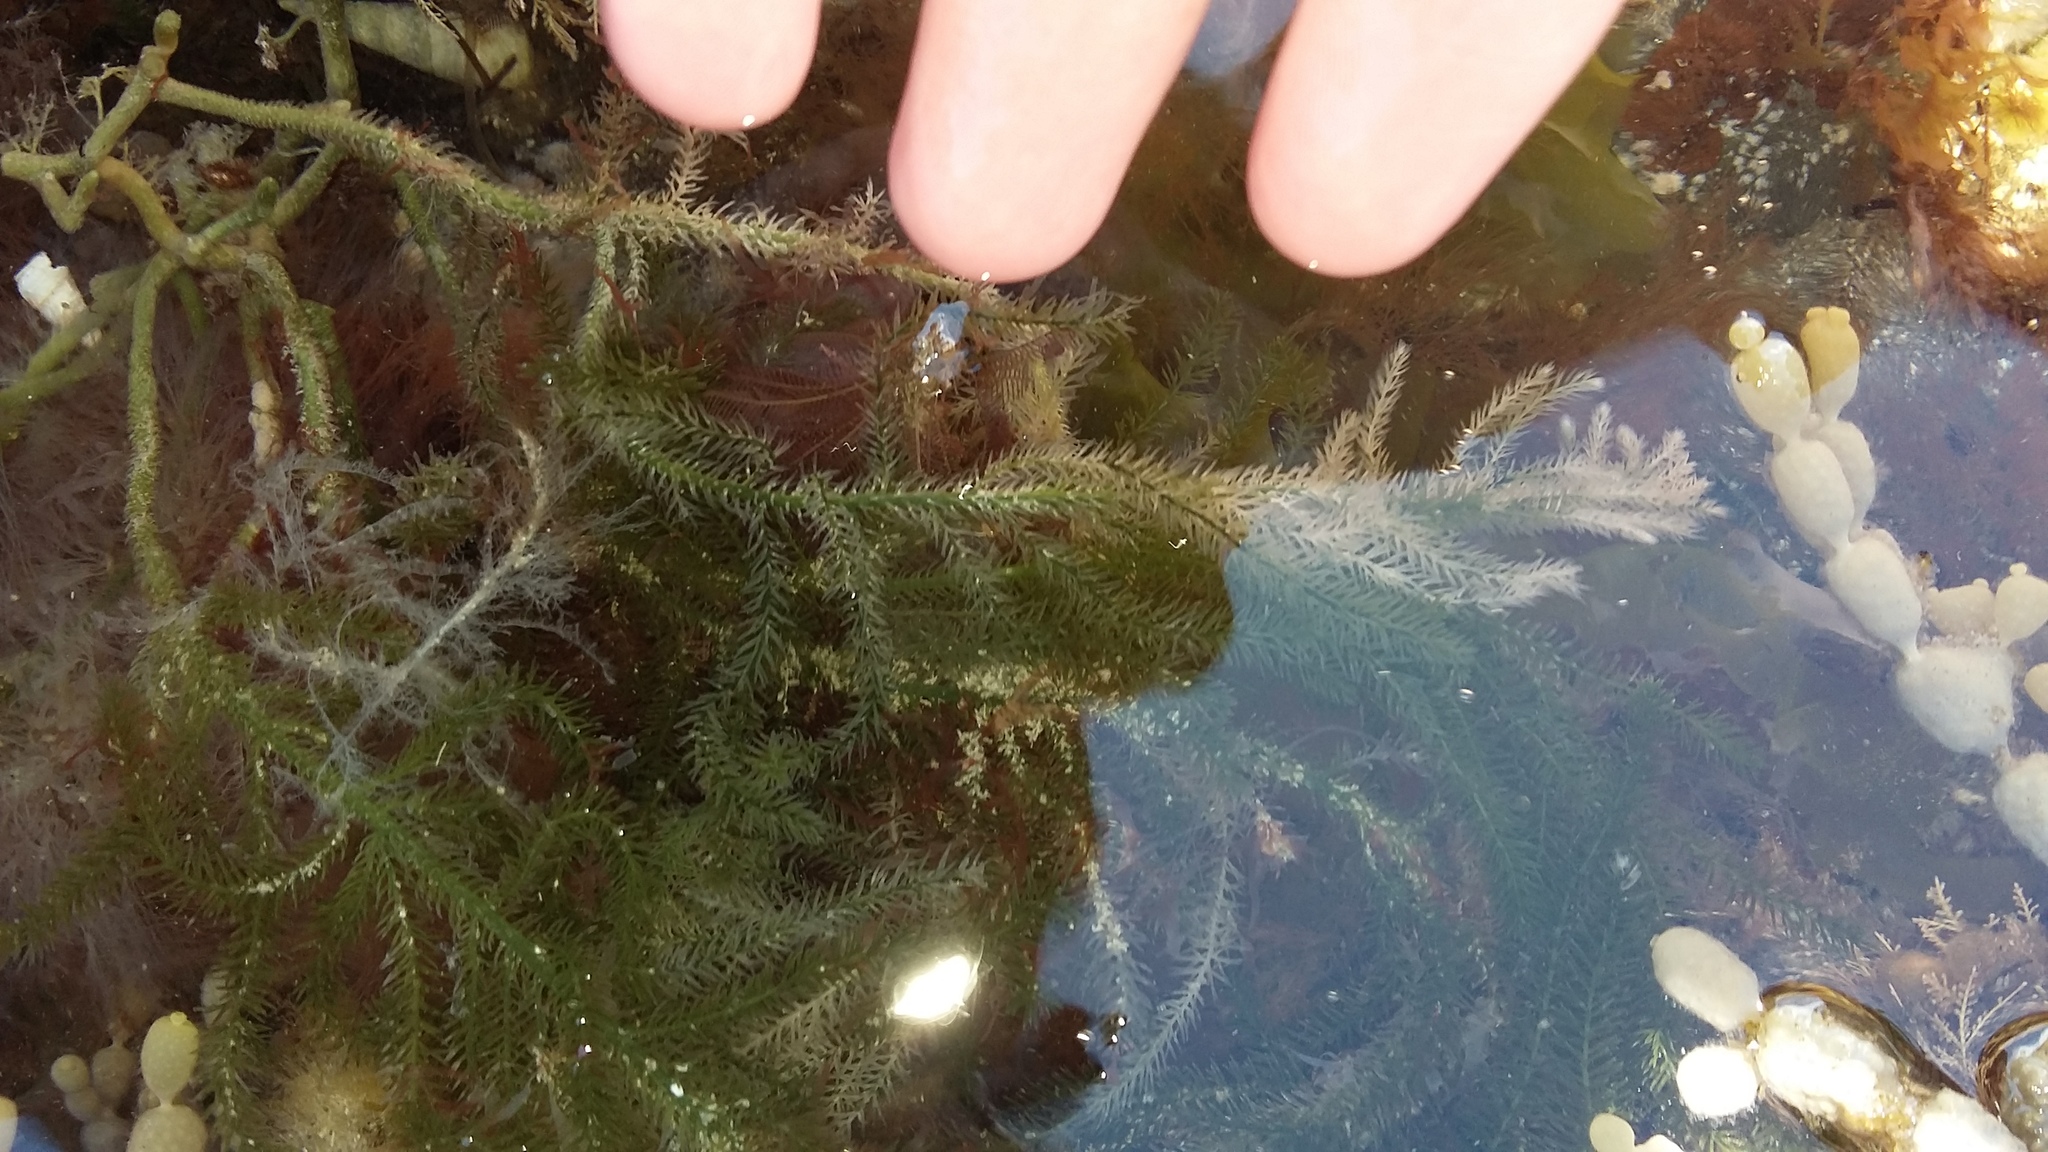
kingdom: Plantae
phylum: Chlorophyta
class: Ulvophyceae
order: Bryopsidales
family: Caulerpaceae
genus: Caulerpa
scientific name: Caulerpa brownii
